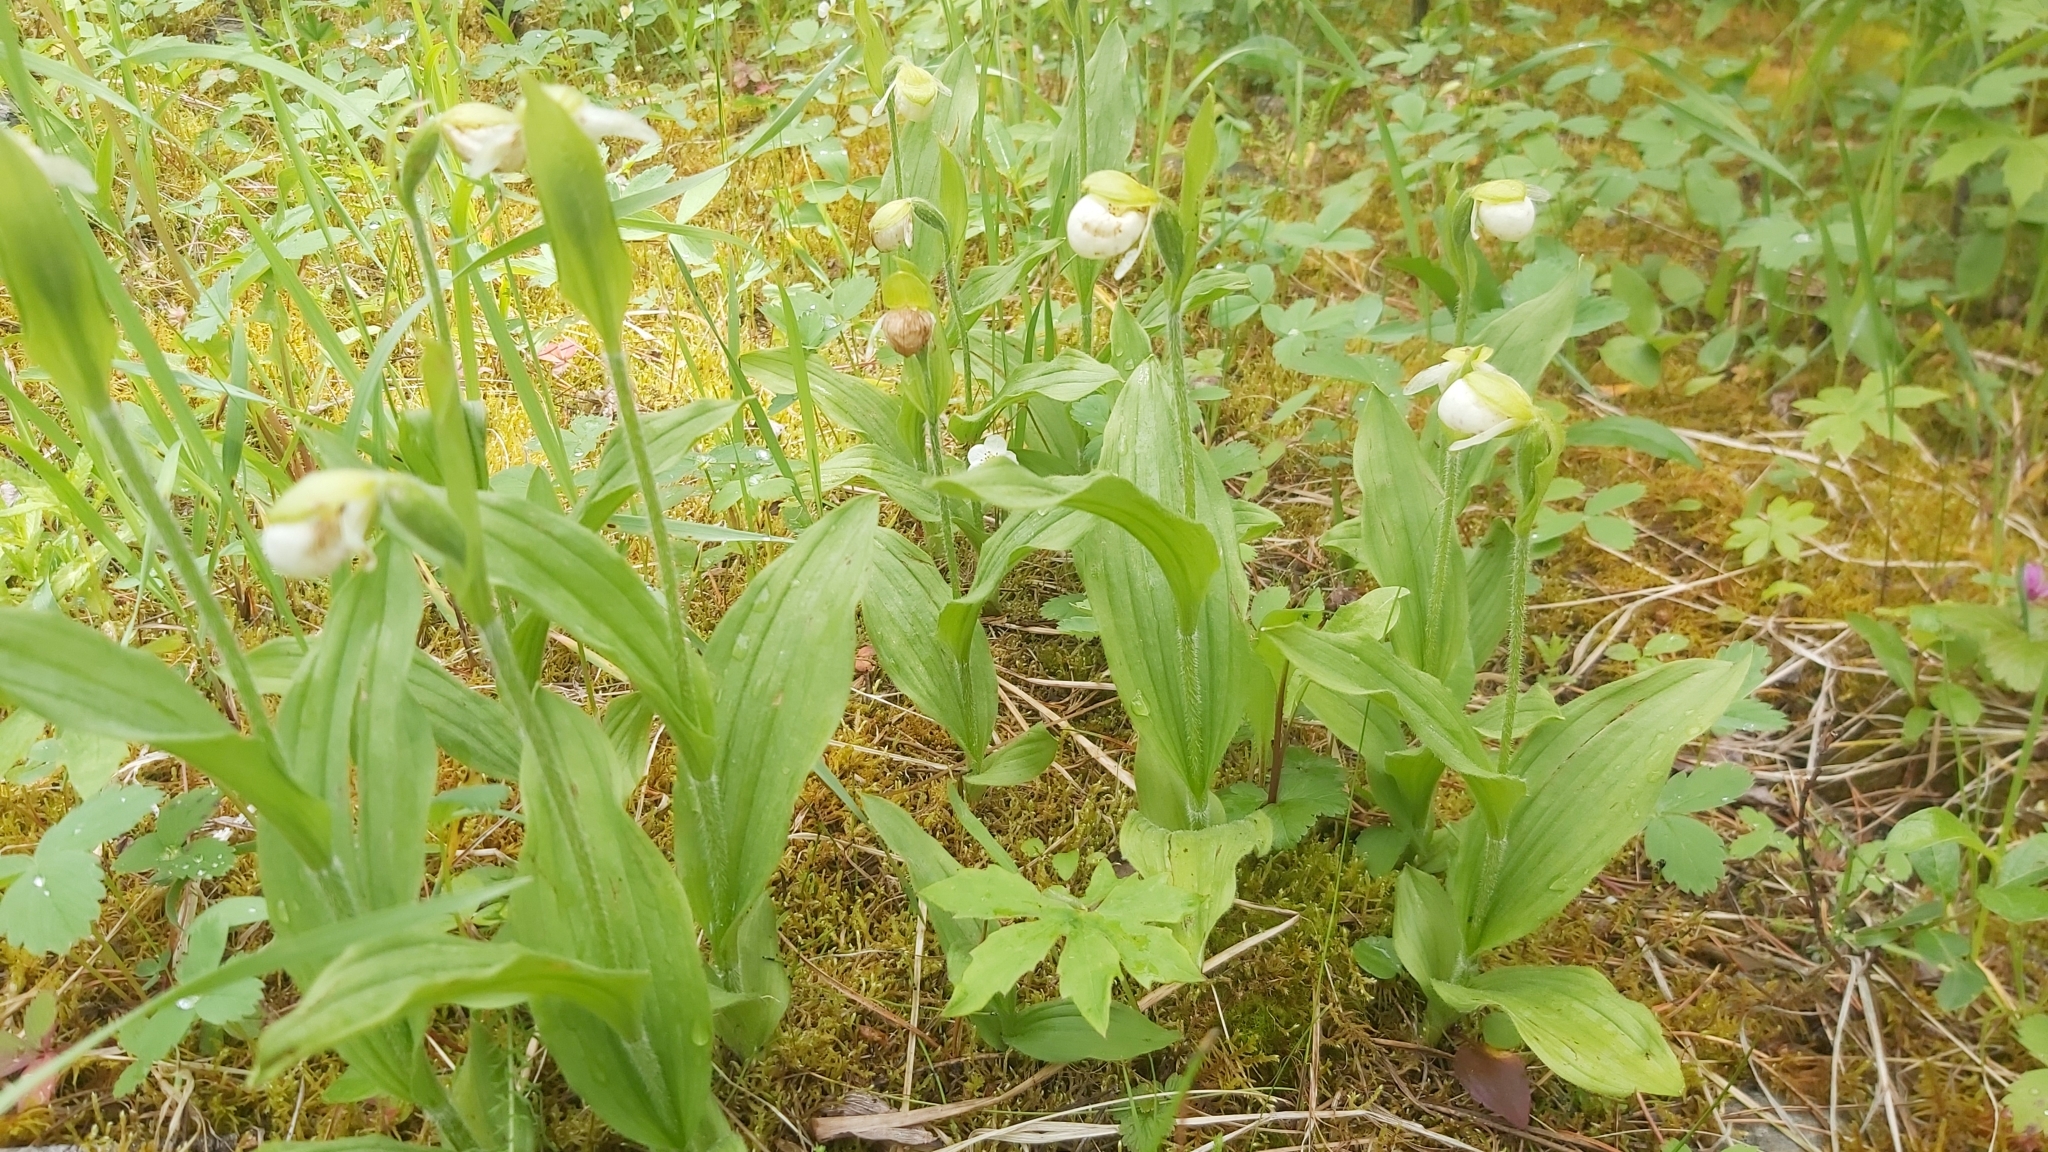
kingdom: Plantae
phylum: Tracheophyta
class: Liliopsida
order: Asparagales
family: Orchidaceae
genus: Cypripedium
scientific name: Cypripedium passerinum
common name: Sparrow's-egg lady's-slipper
